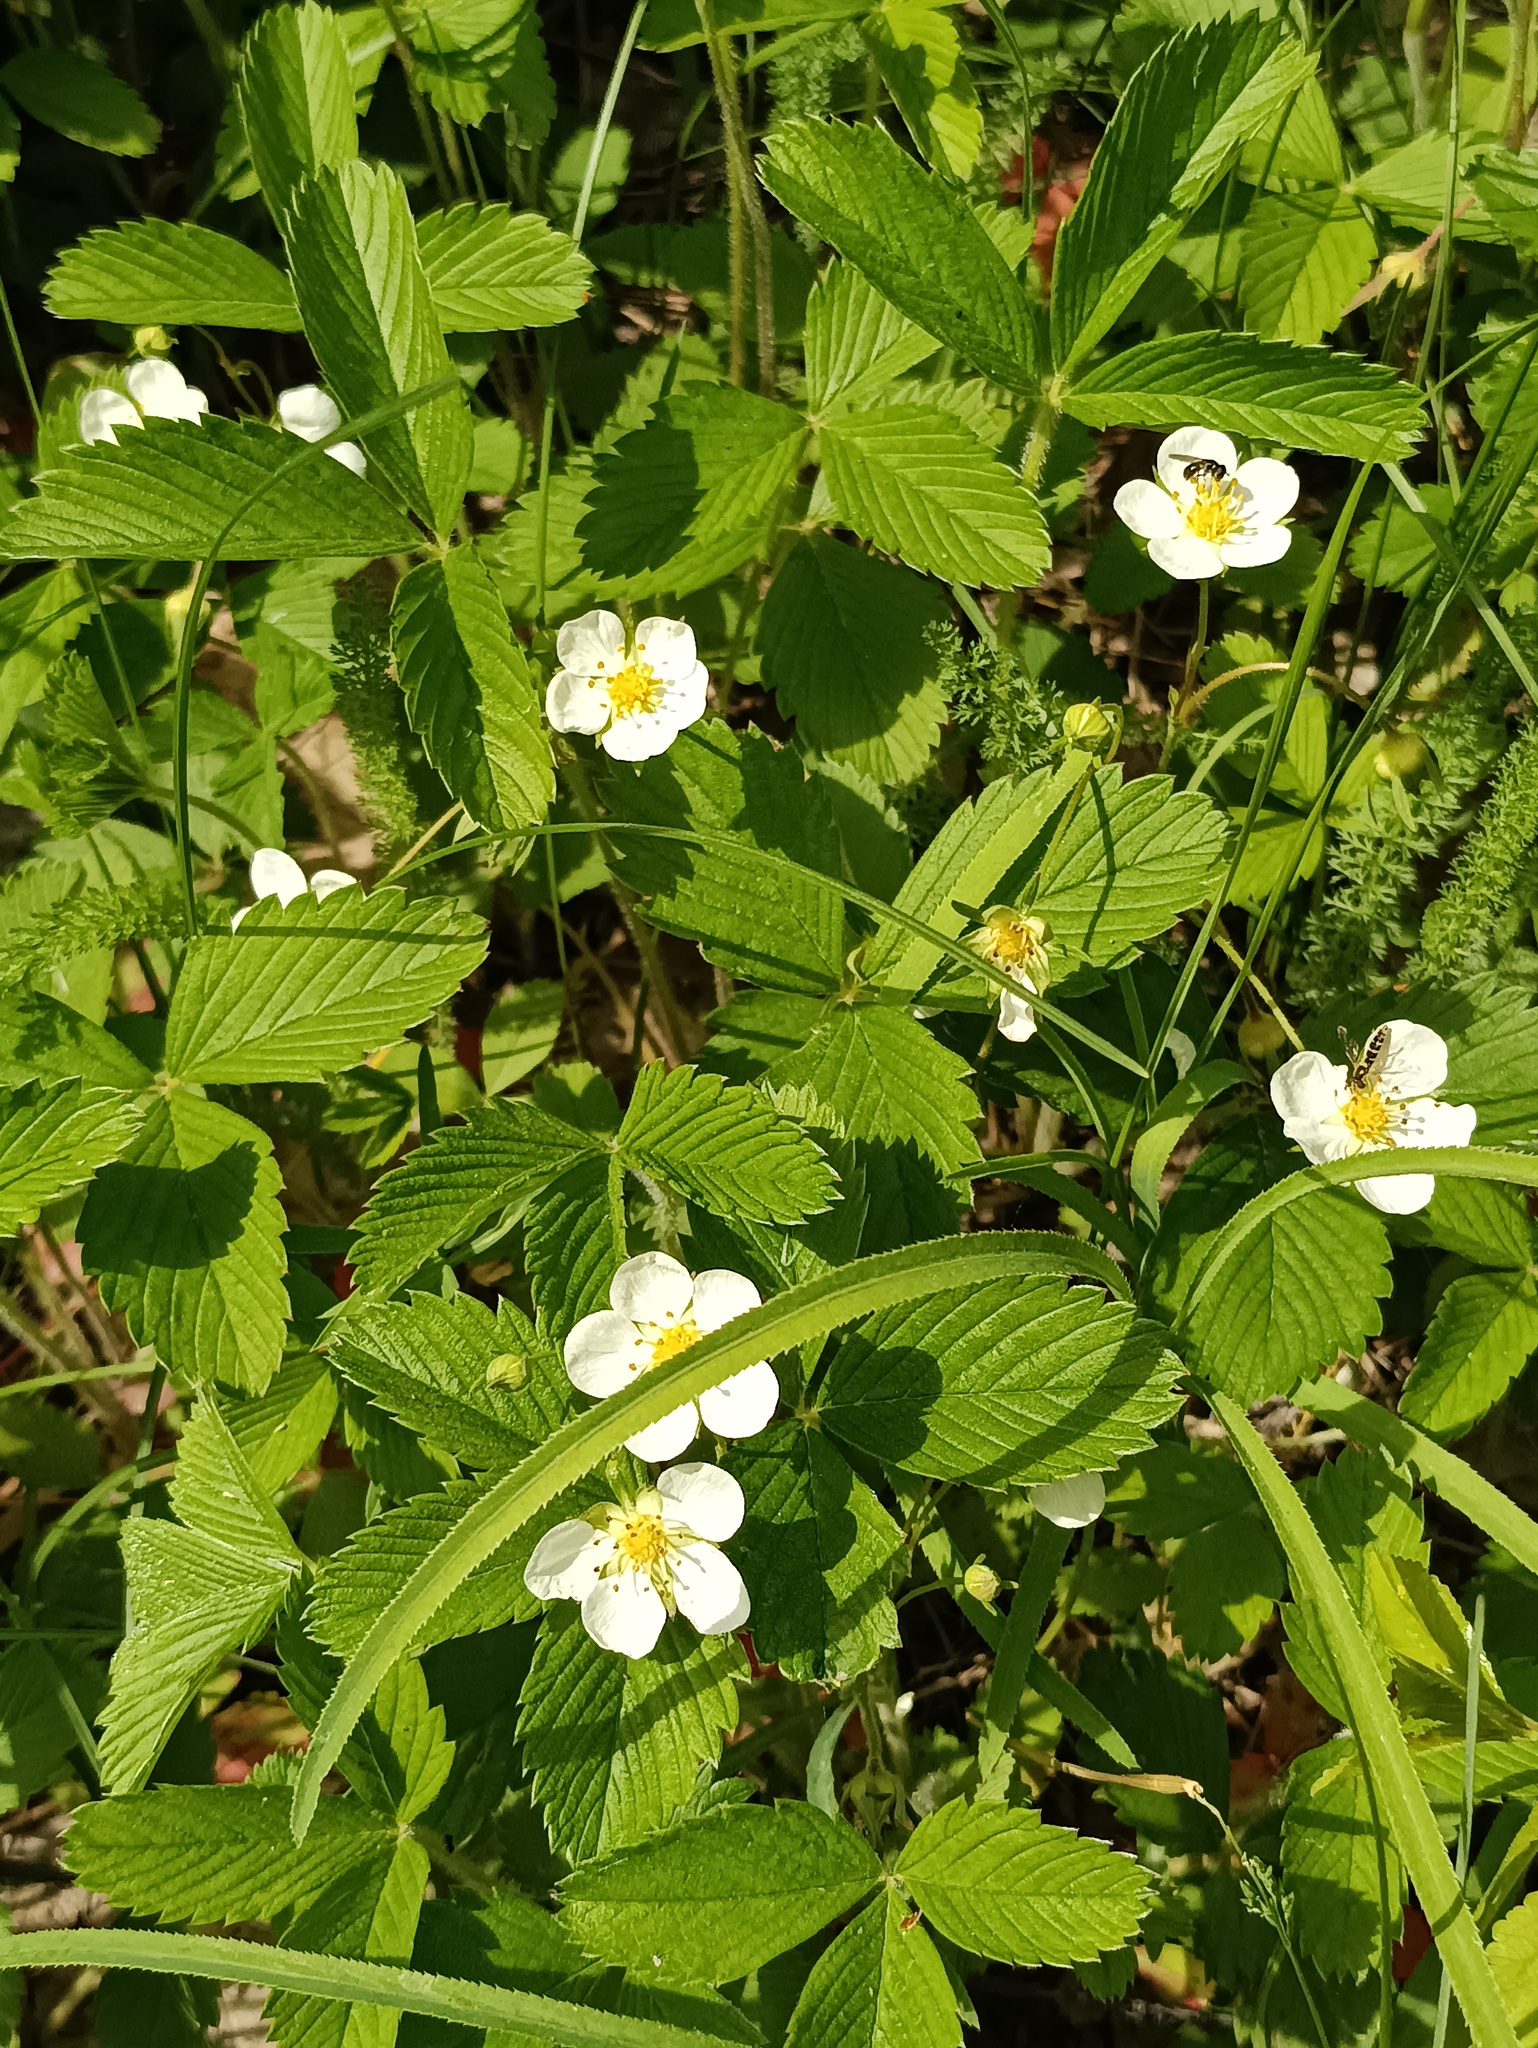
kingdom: Plantae
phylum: Tracheophyta
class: Magnoliopsida
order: Rosales
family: Rosaceae
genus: Fragaria
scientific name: Fragaria viridis
